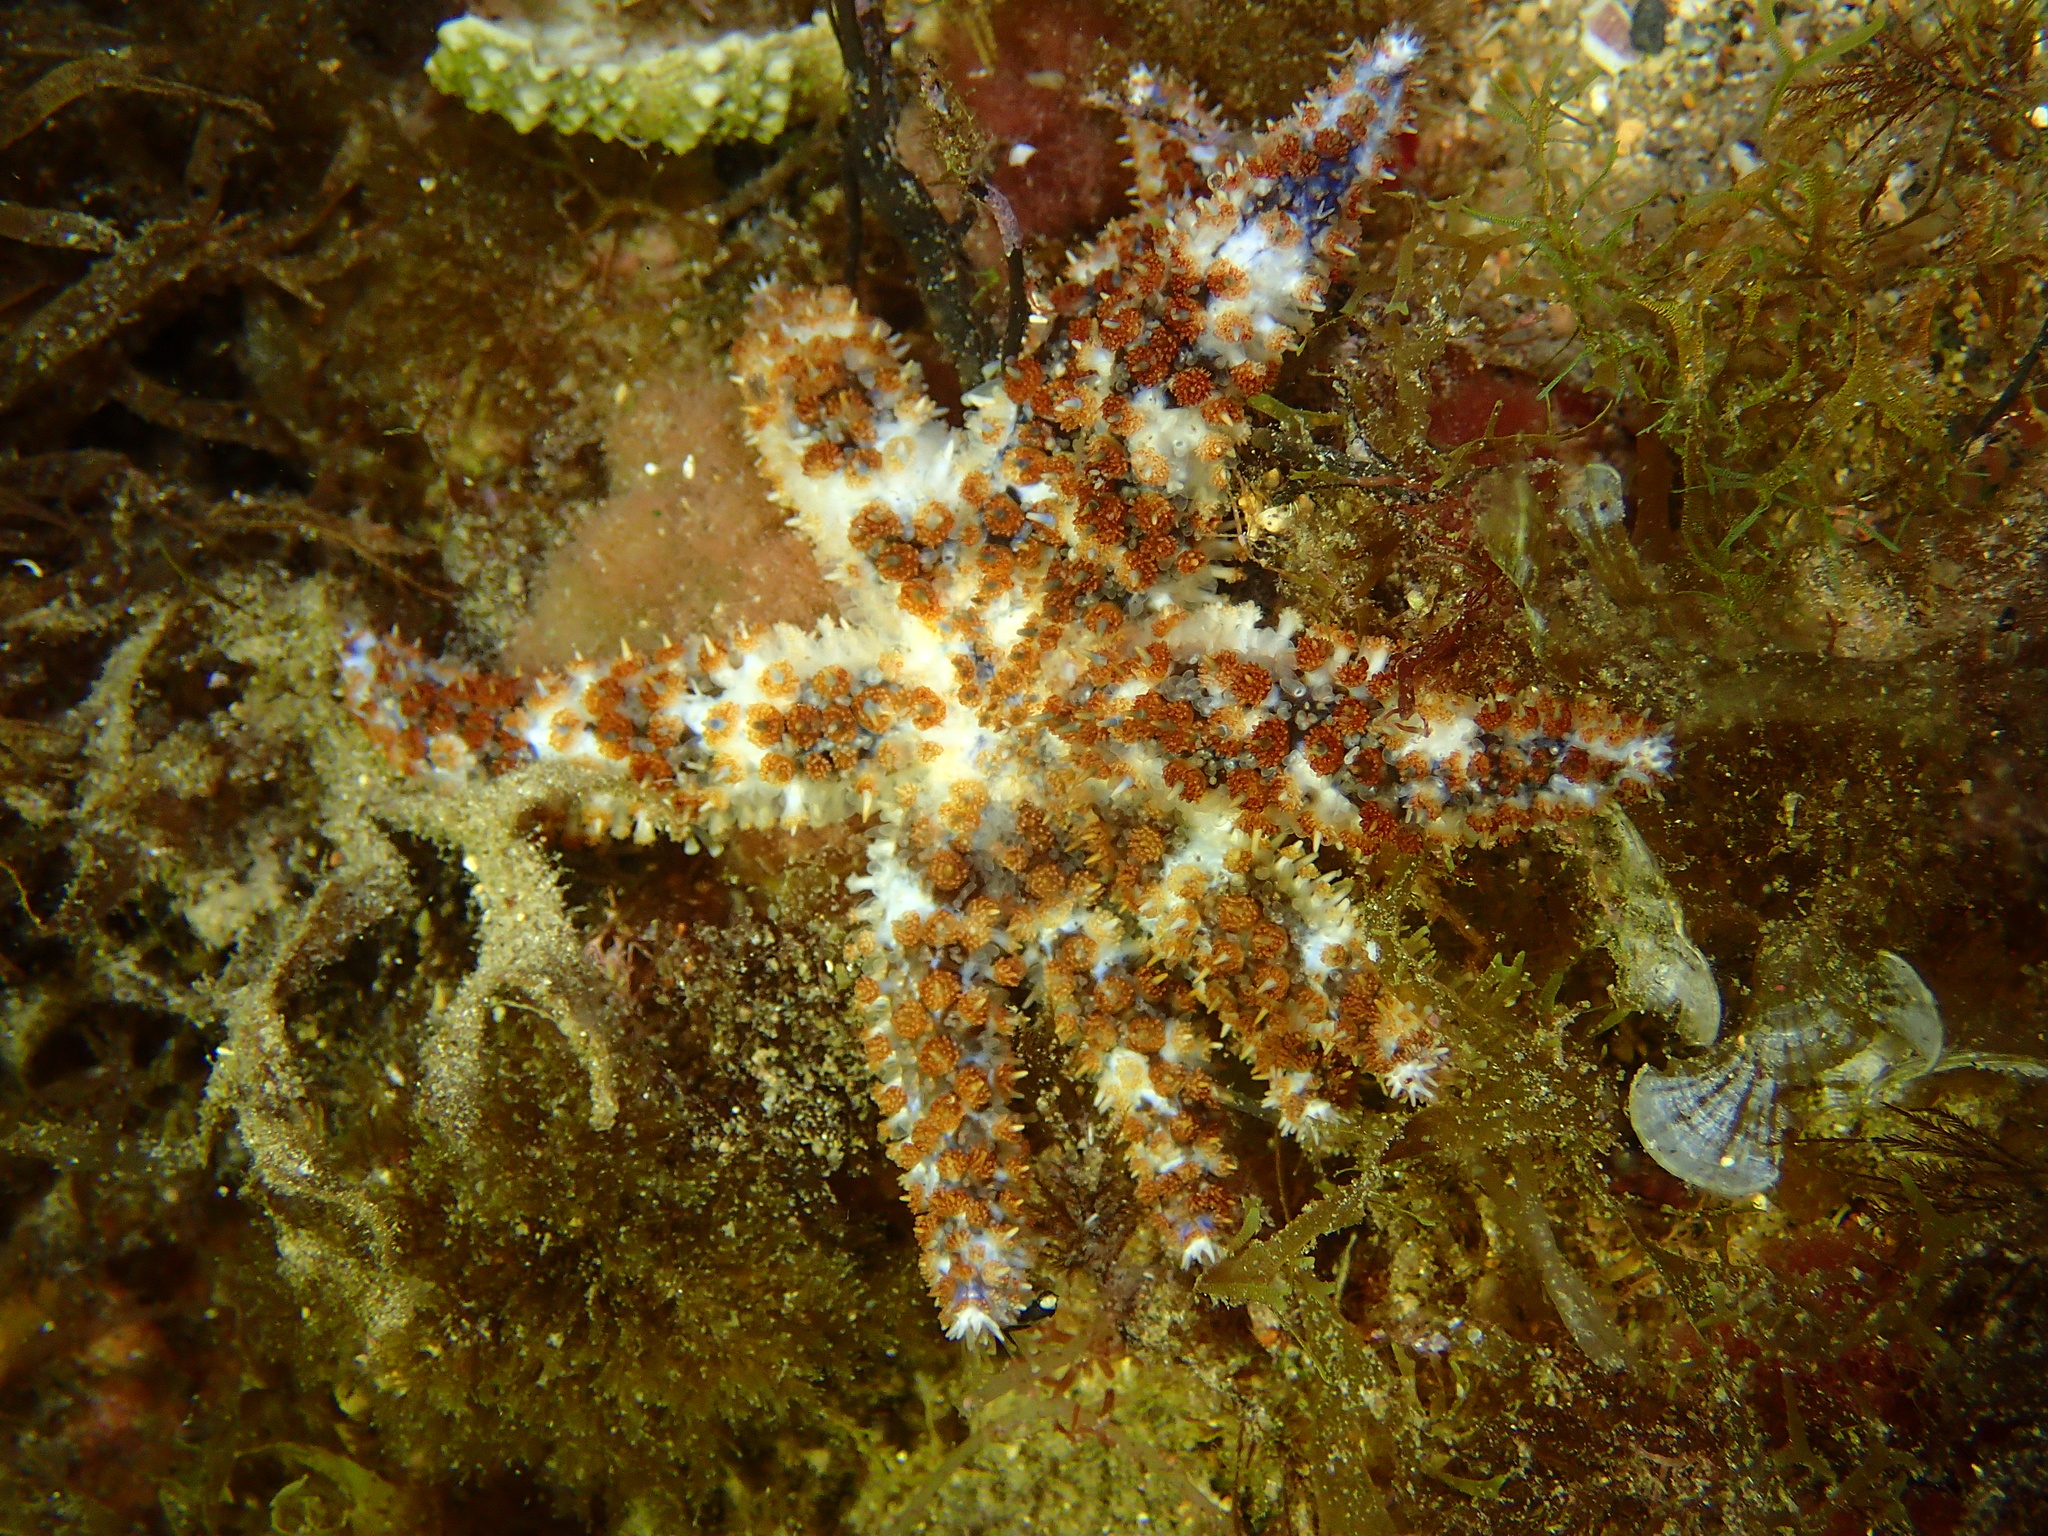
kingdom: Animalia
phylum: Echinodermata
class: Asteroidea
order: Forcipulatida
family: Asteriidae
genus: Coscinasterias
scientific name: Coscinasterias tenuispina
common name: Blue spiny starfish
